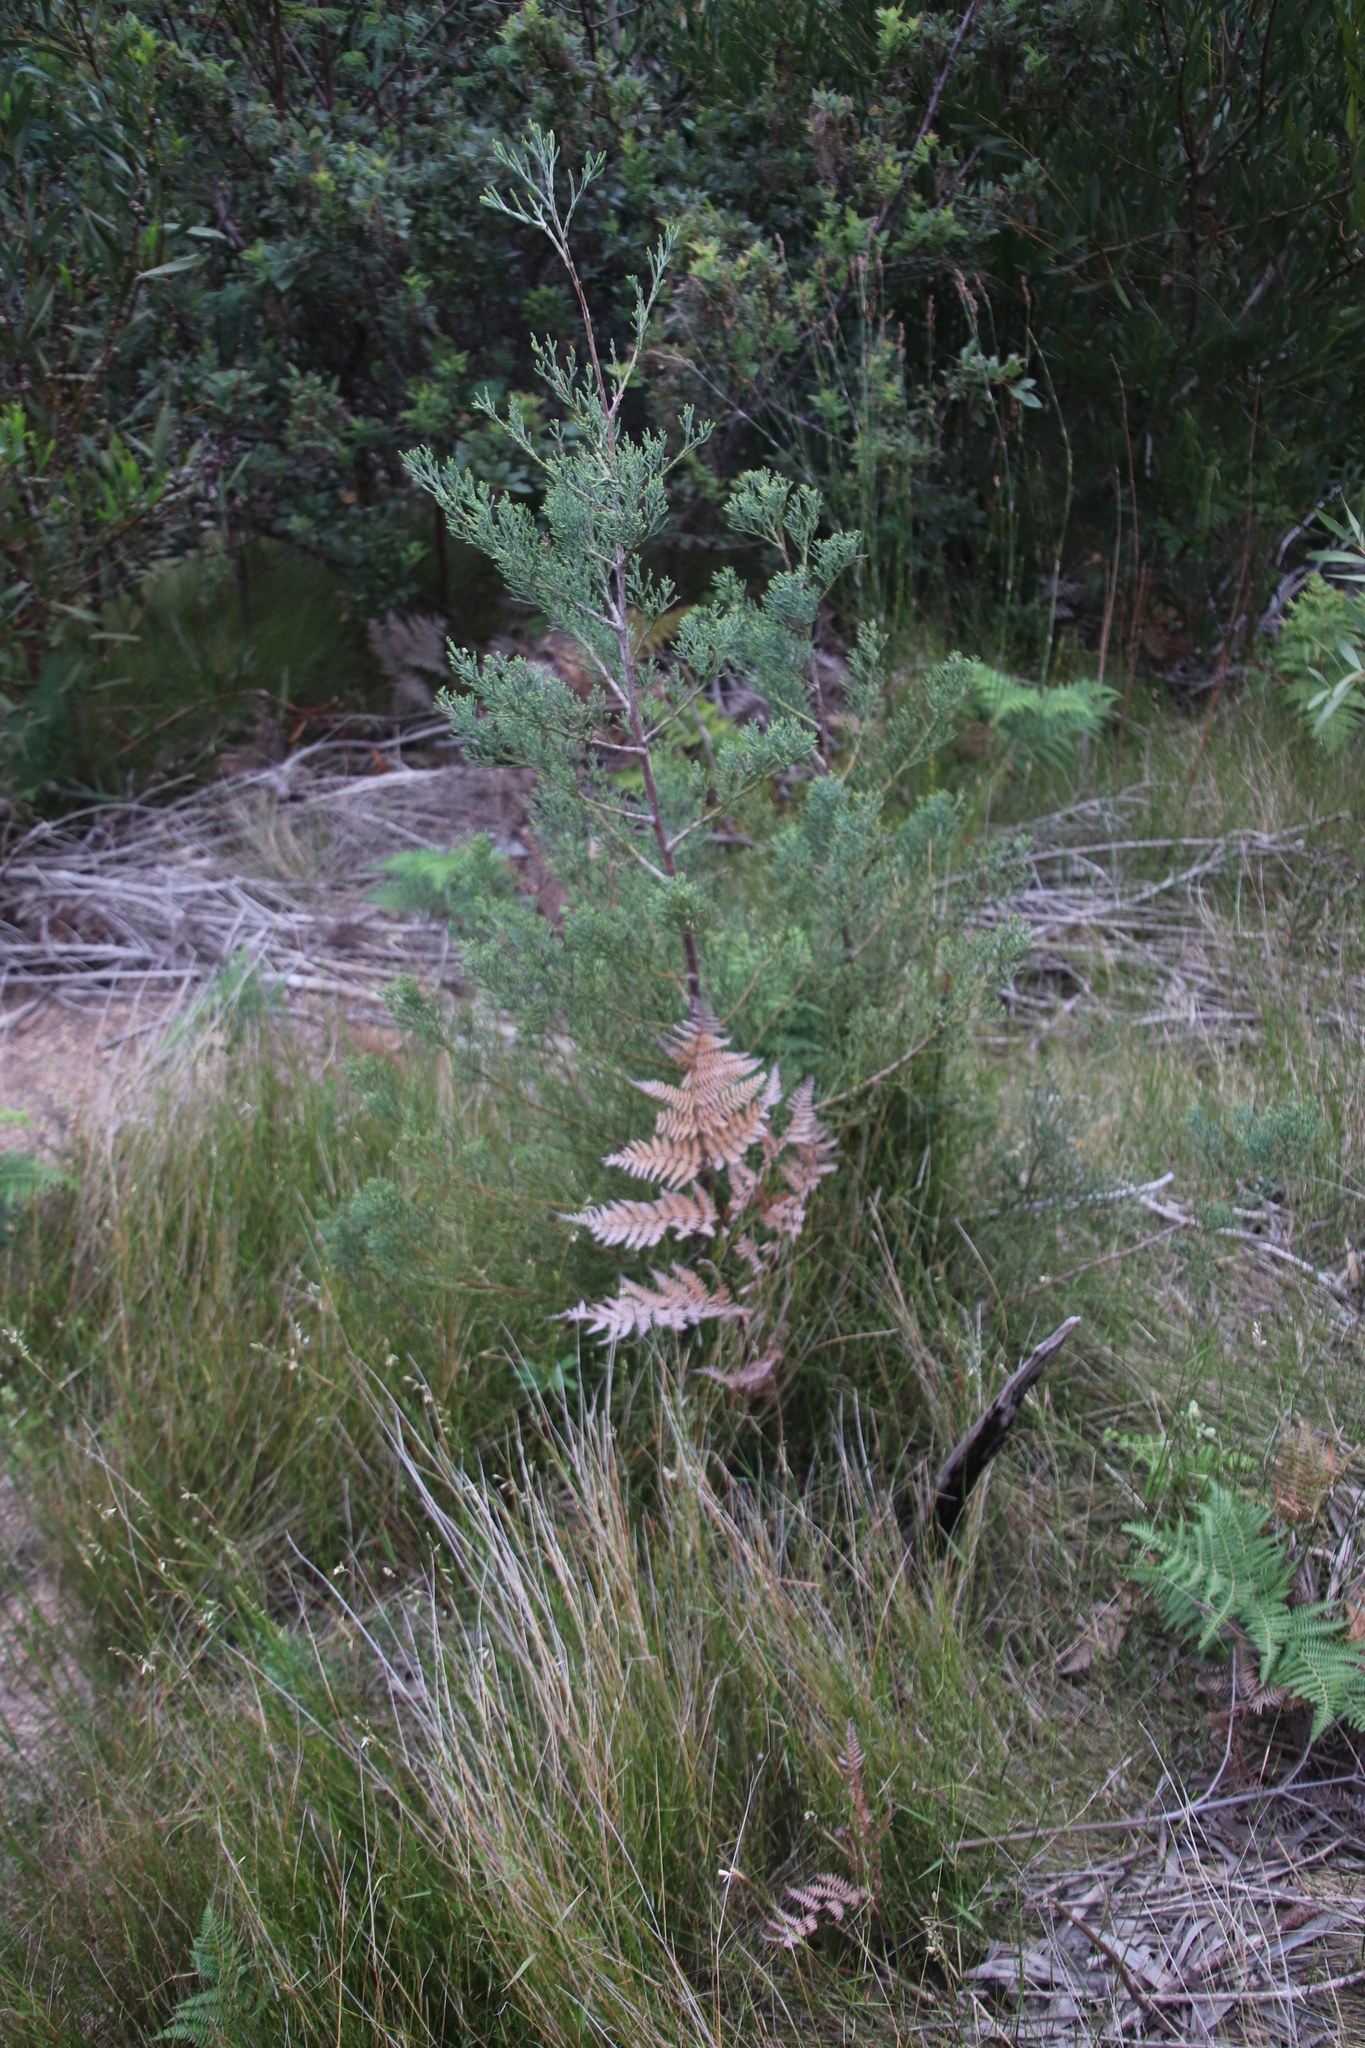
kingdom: Plantae
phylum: Tracheophyta
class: Pinopsida
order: Pinales
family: Cupressaceae
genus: Widdringtonia
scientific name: Widdringtonia nodiflora
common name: Cape cypress
